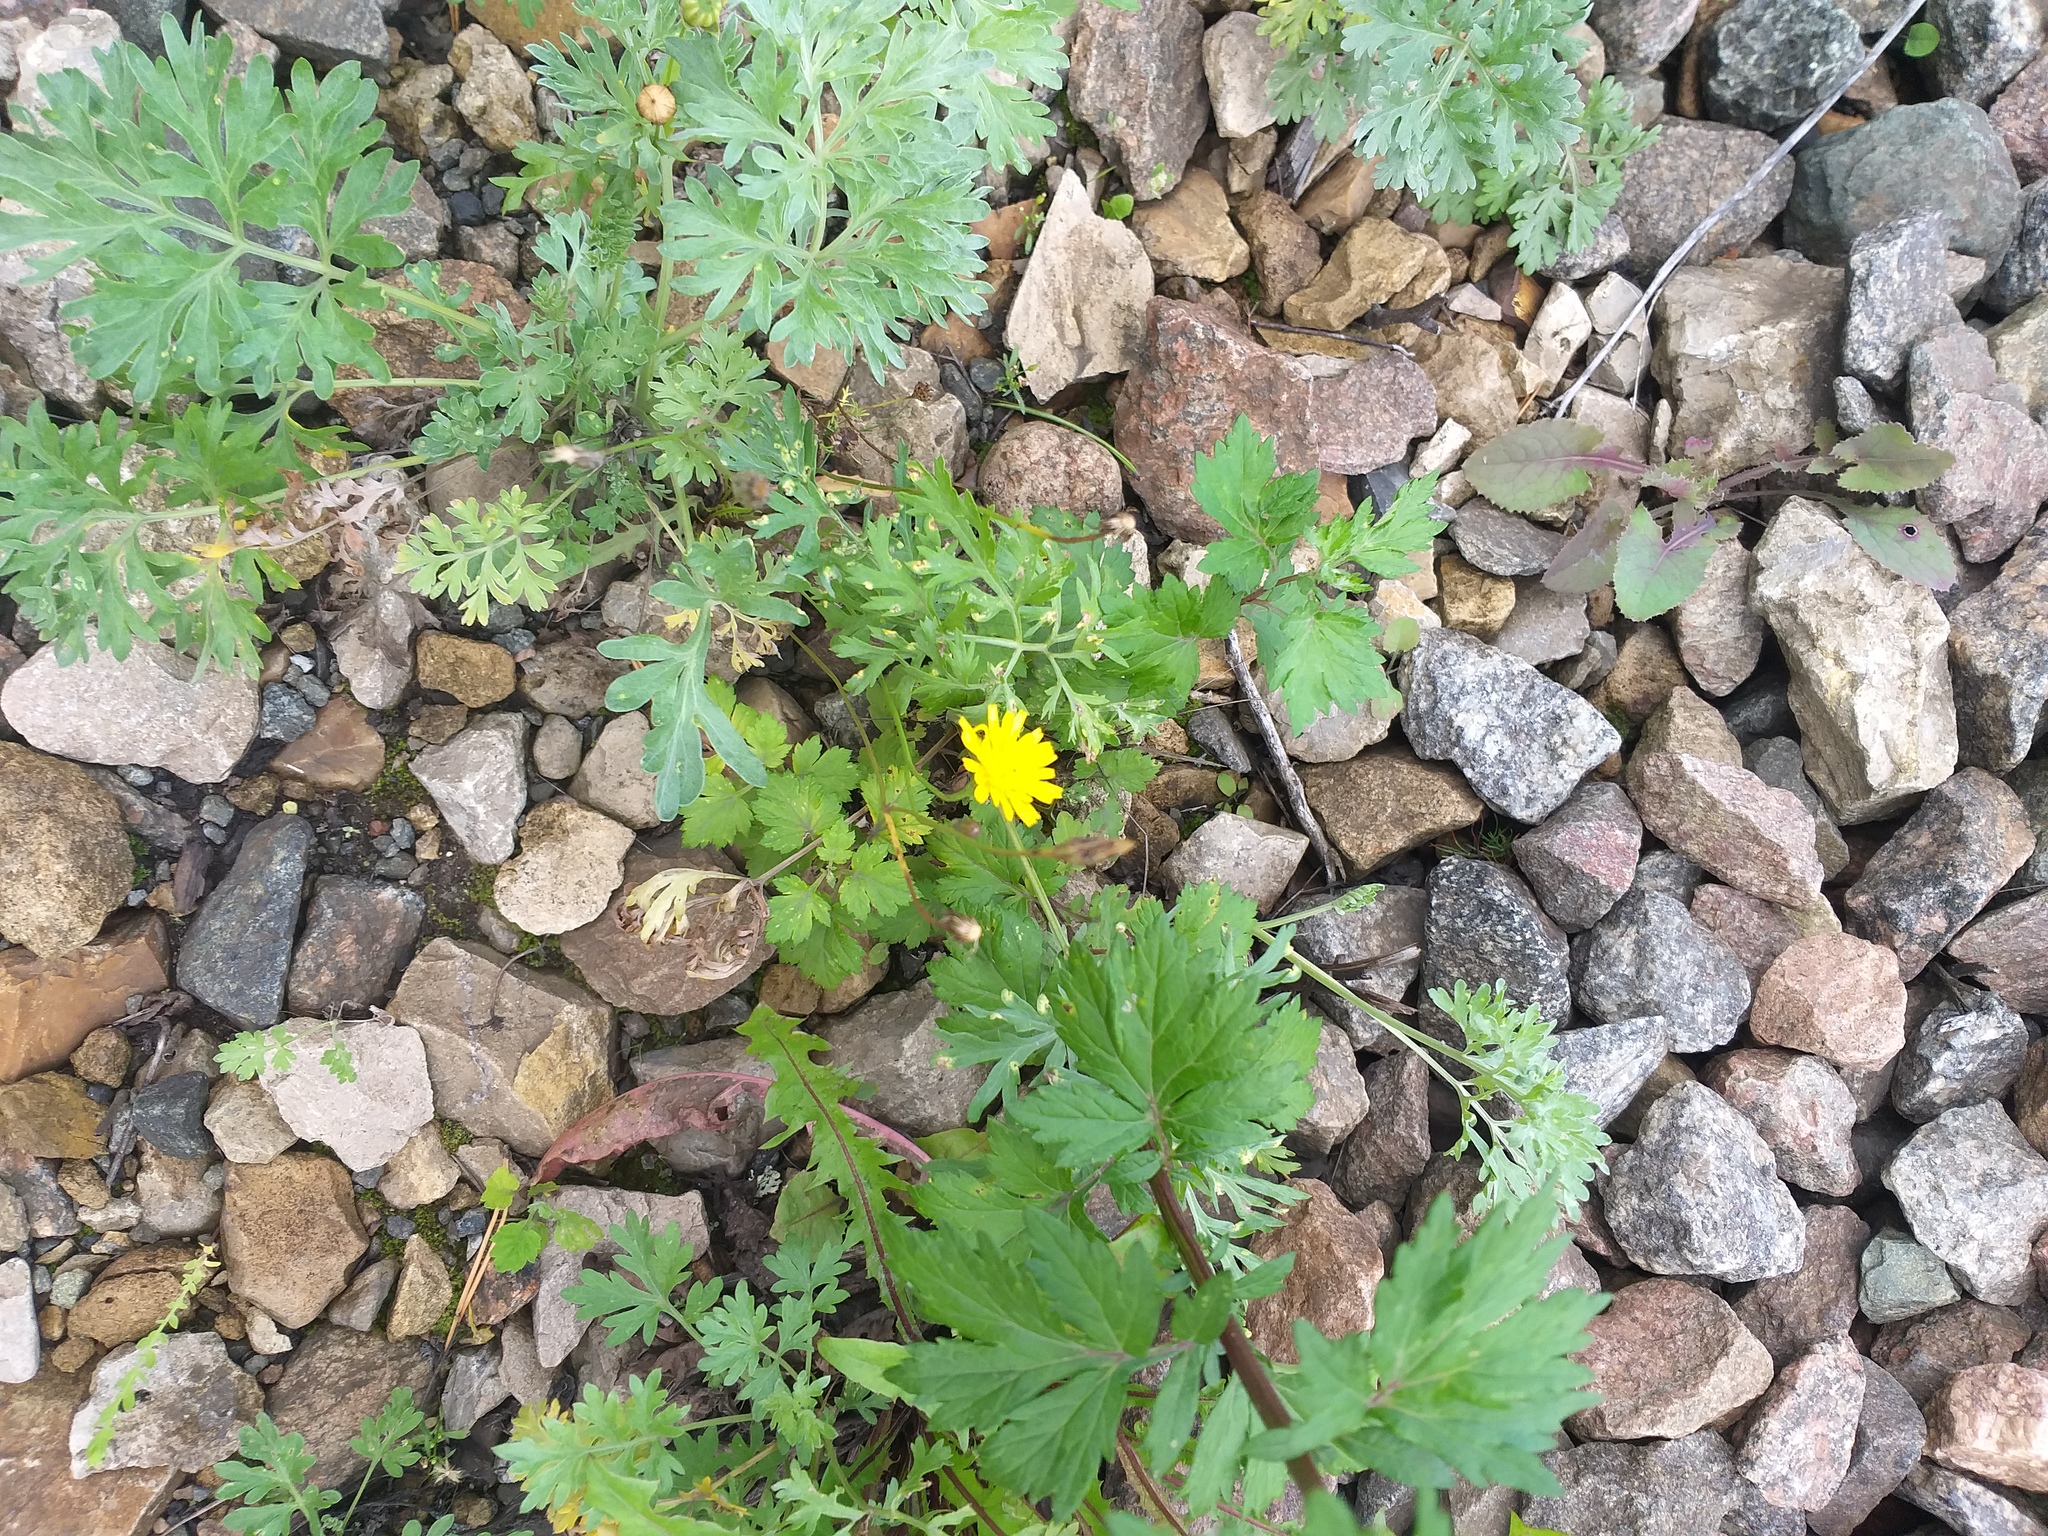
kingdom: Plantae
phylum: Tracheophyta
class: Magnoliopsida
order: Asterales
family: Asteraceae
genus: Scorzoneroides
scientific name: Scorzoneroides autumnalis
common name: Autumn hawkbit
